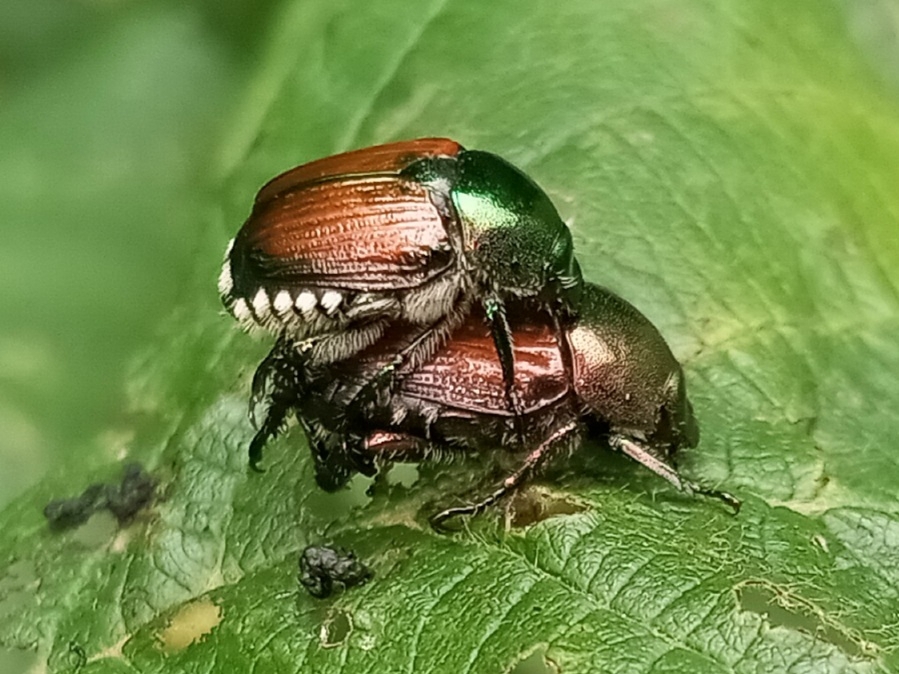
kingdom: Animalia
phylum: Arthropoda
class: Insecta
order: Coleoptera
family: Scarabaeidae
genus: Popillia
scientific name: Popillia japonica
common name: Japanese beetle
